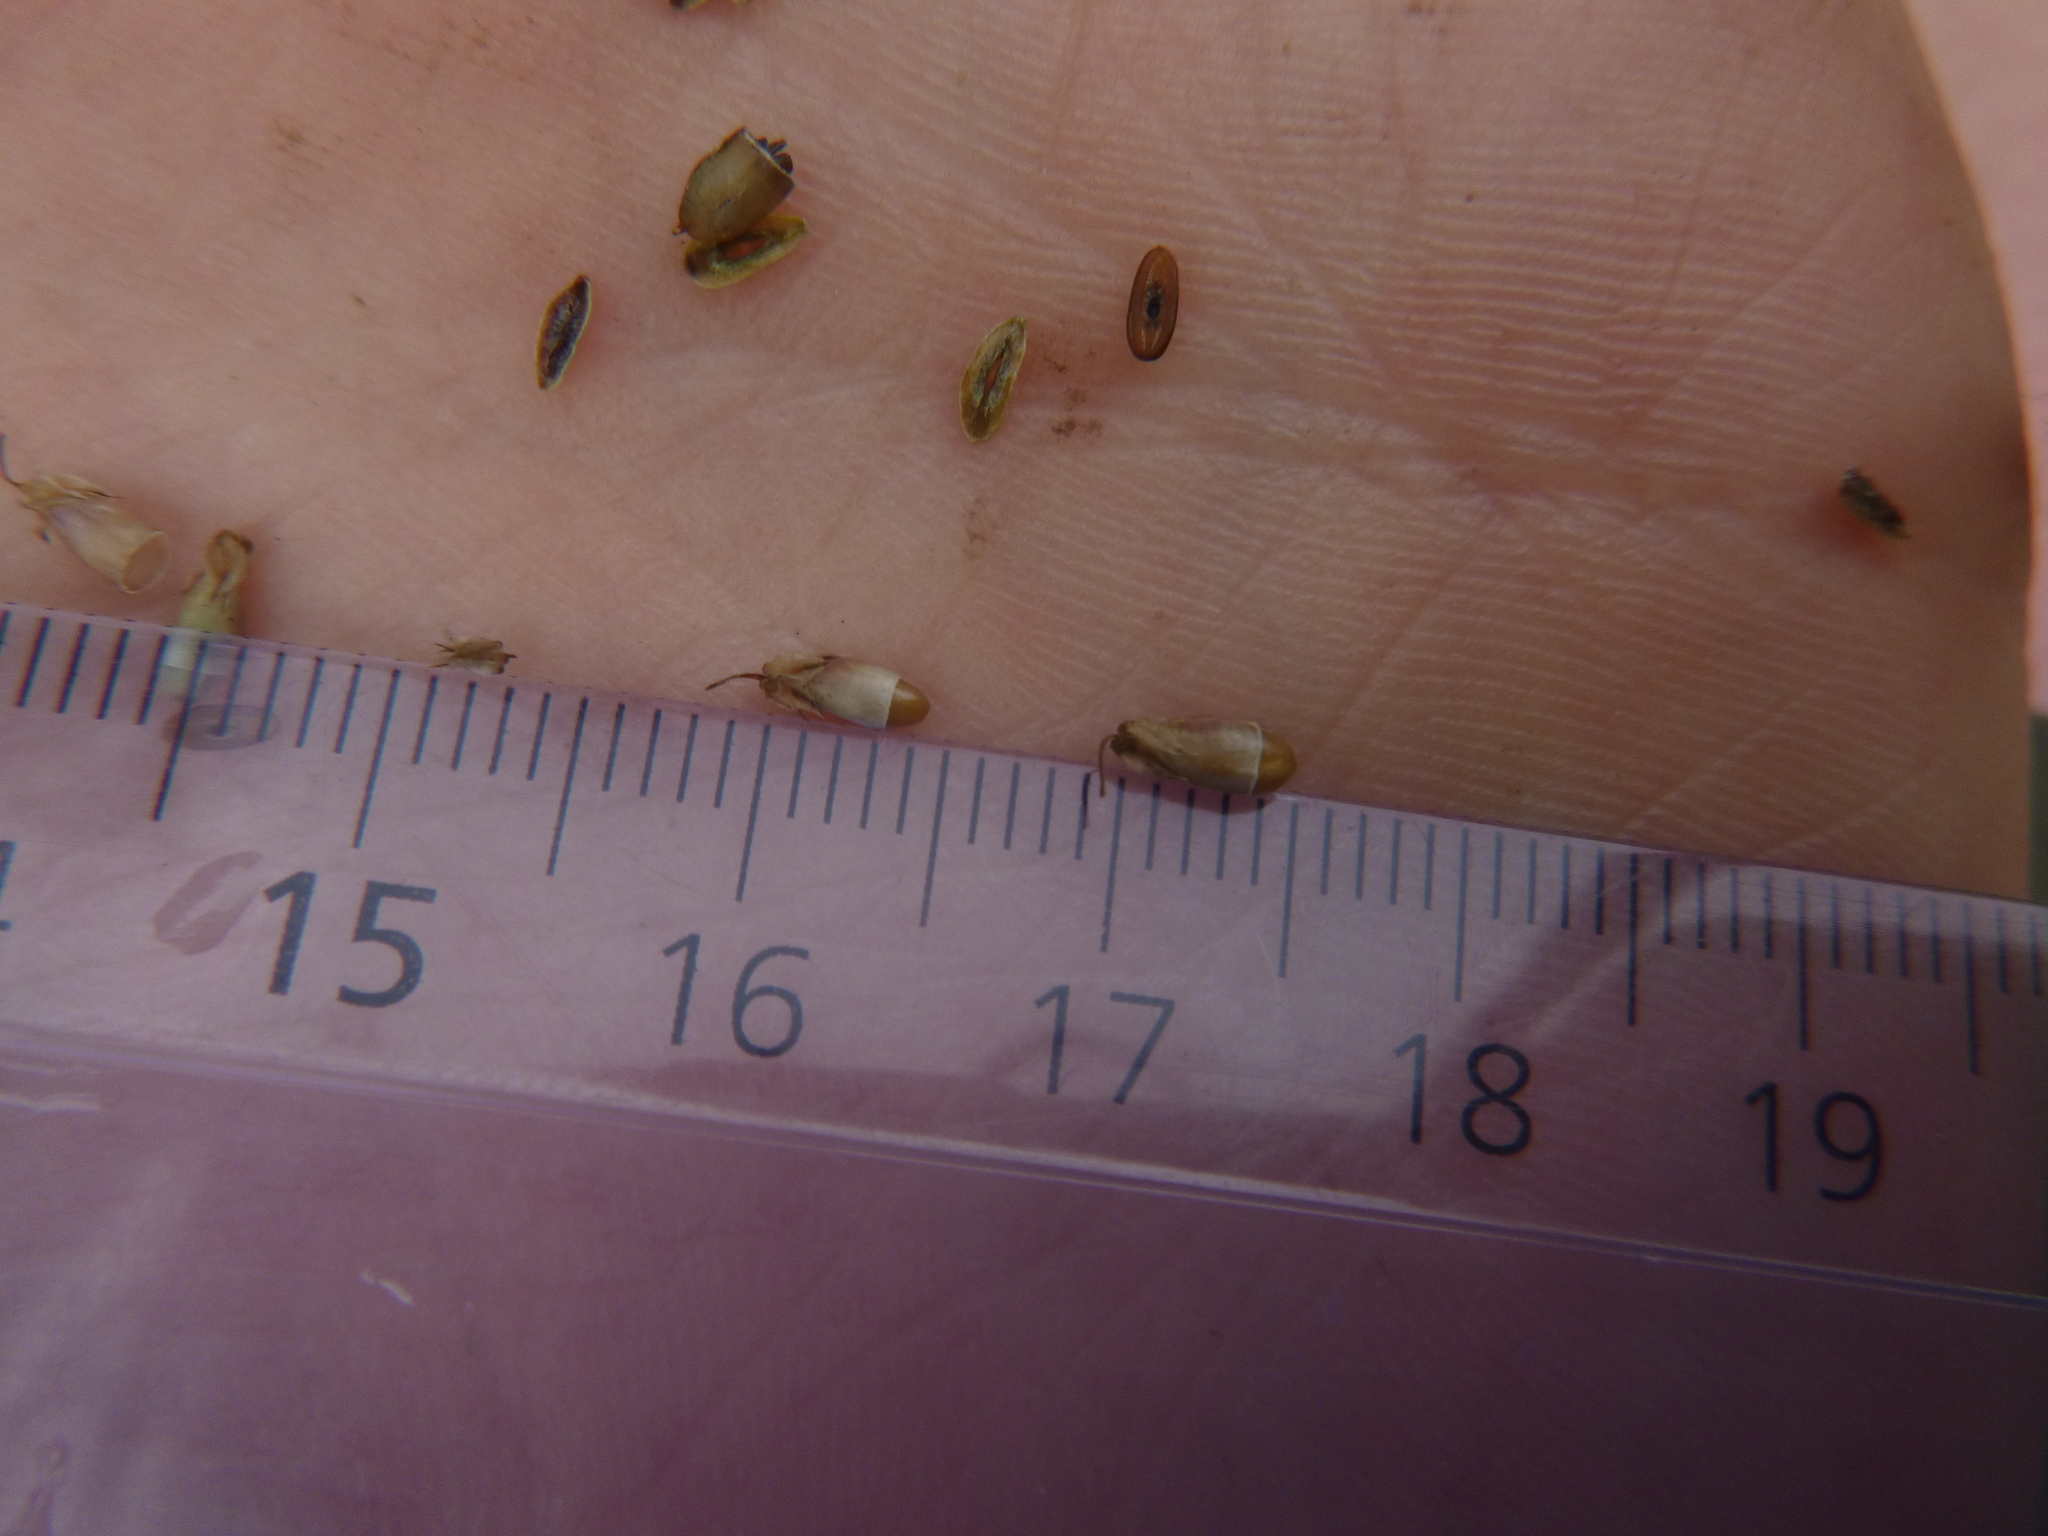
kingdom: Plantae
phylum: Tracheophyta
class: Magnoliopsida
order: Lamiales
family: Plantaginaceae
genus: Plantago
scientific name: Plantago lanceolata
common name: Ribwort plantain
